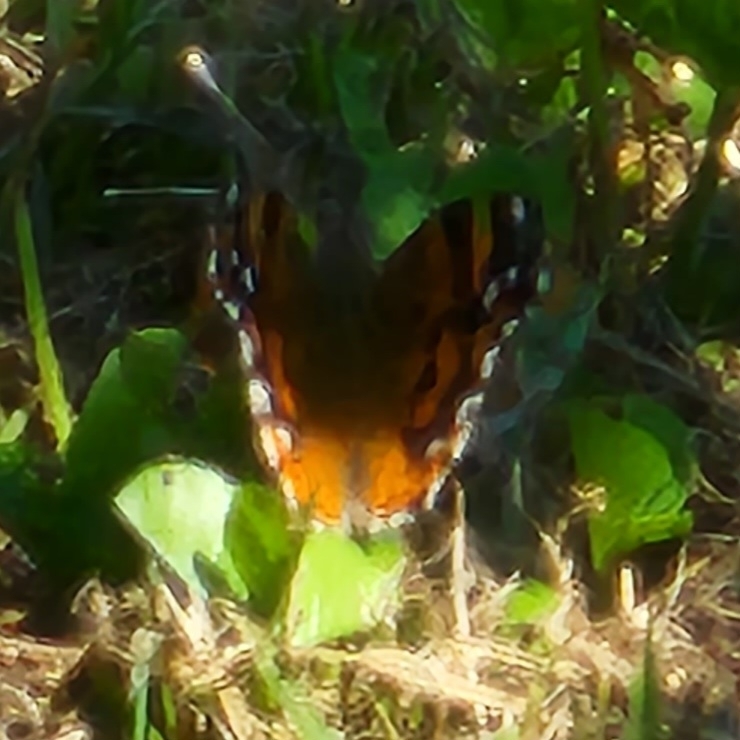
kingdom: Animalia
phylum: Arthropoda
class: Insecta
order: Lepidoptera
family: Nymphalidae
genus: Vanessa
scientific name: Vanessa annabella
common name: West coast lady
